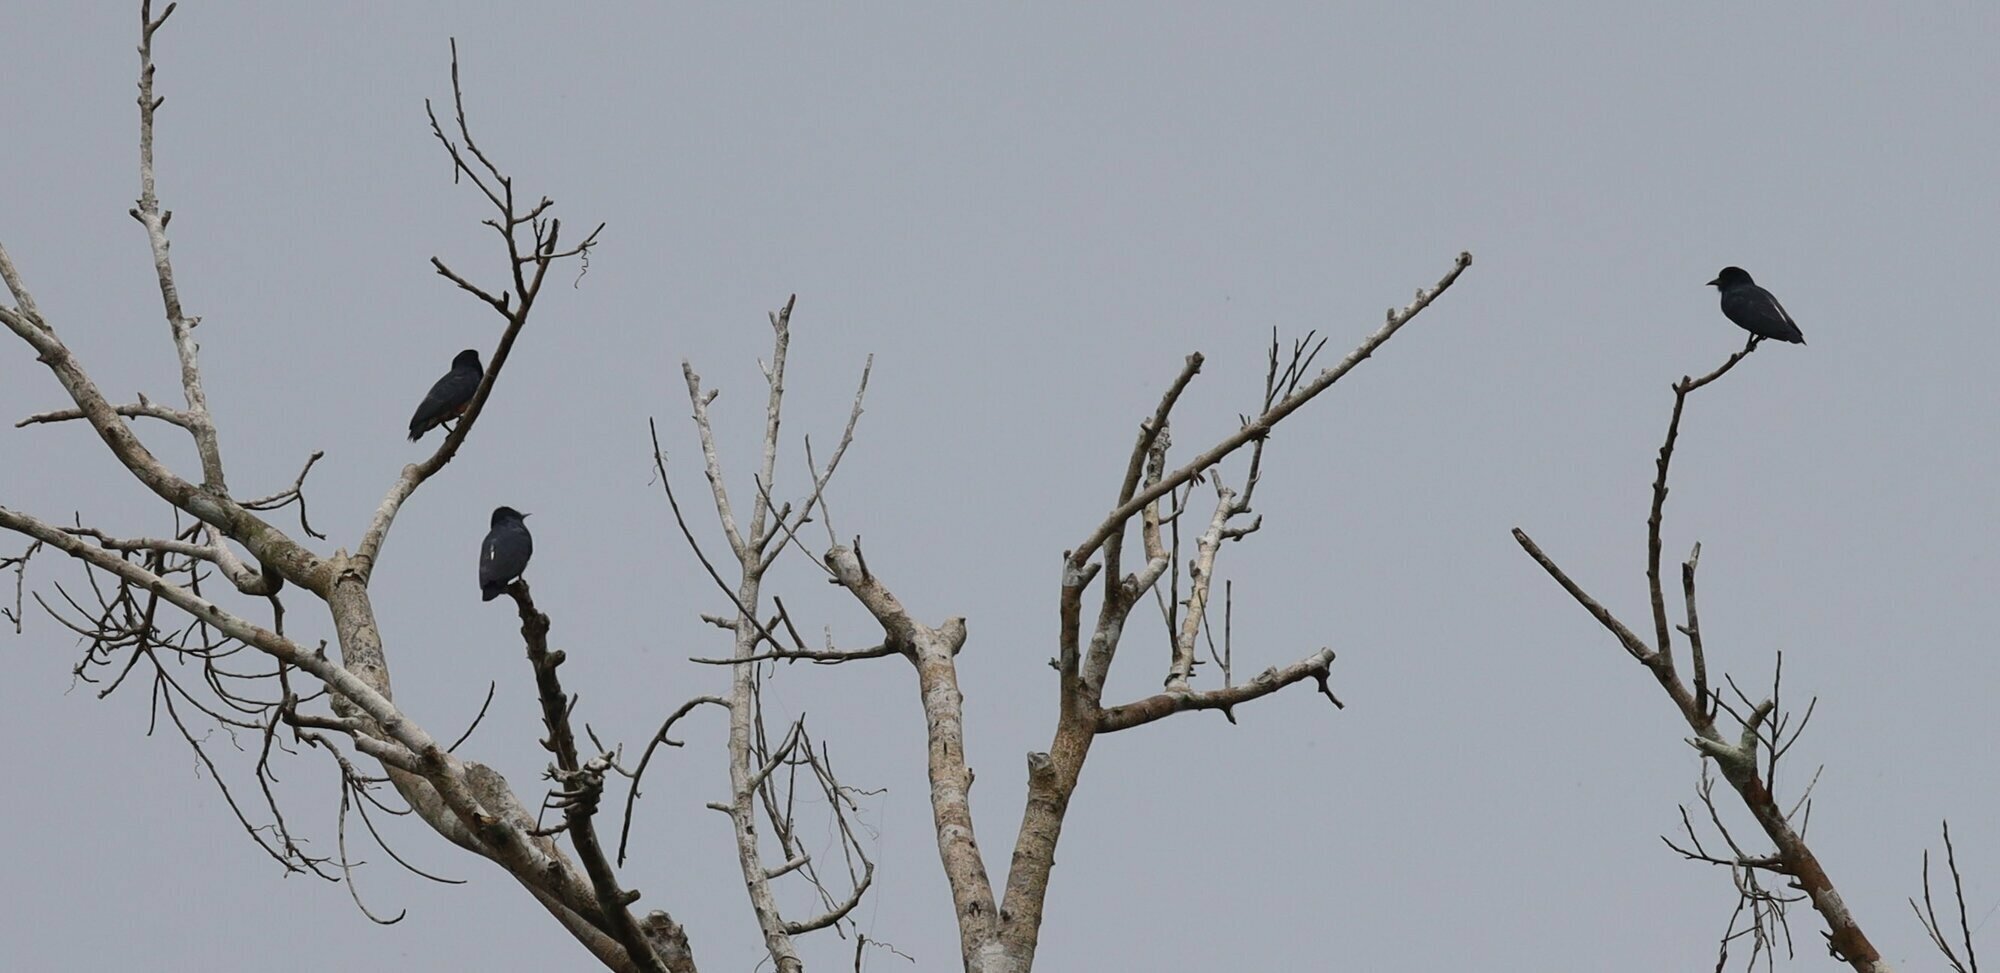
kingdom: Animalia
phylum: Chordata
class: Aves
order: Piciformes
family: Bucconidae
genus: Chelidoptera
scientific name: Chelidoptera tenebrosa
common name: Swallow-winged puffbird
